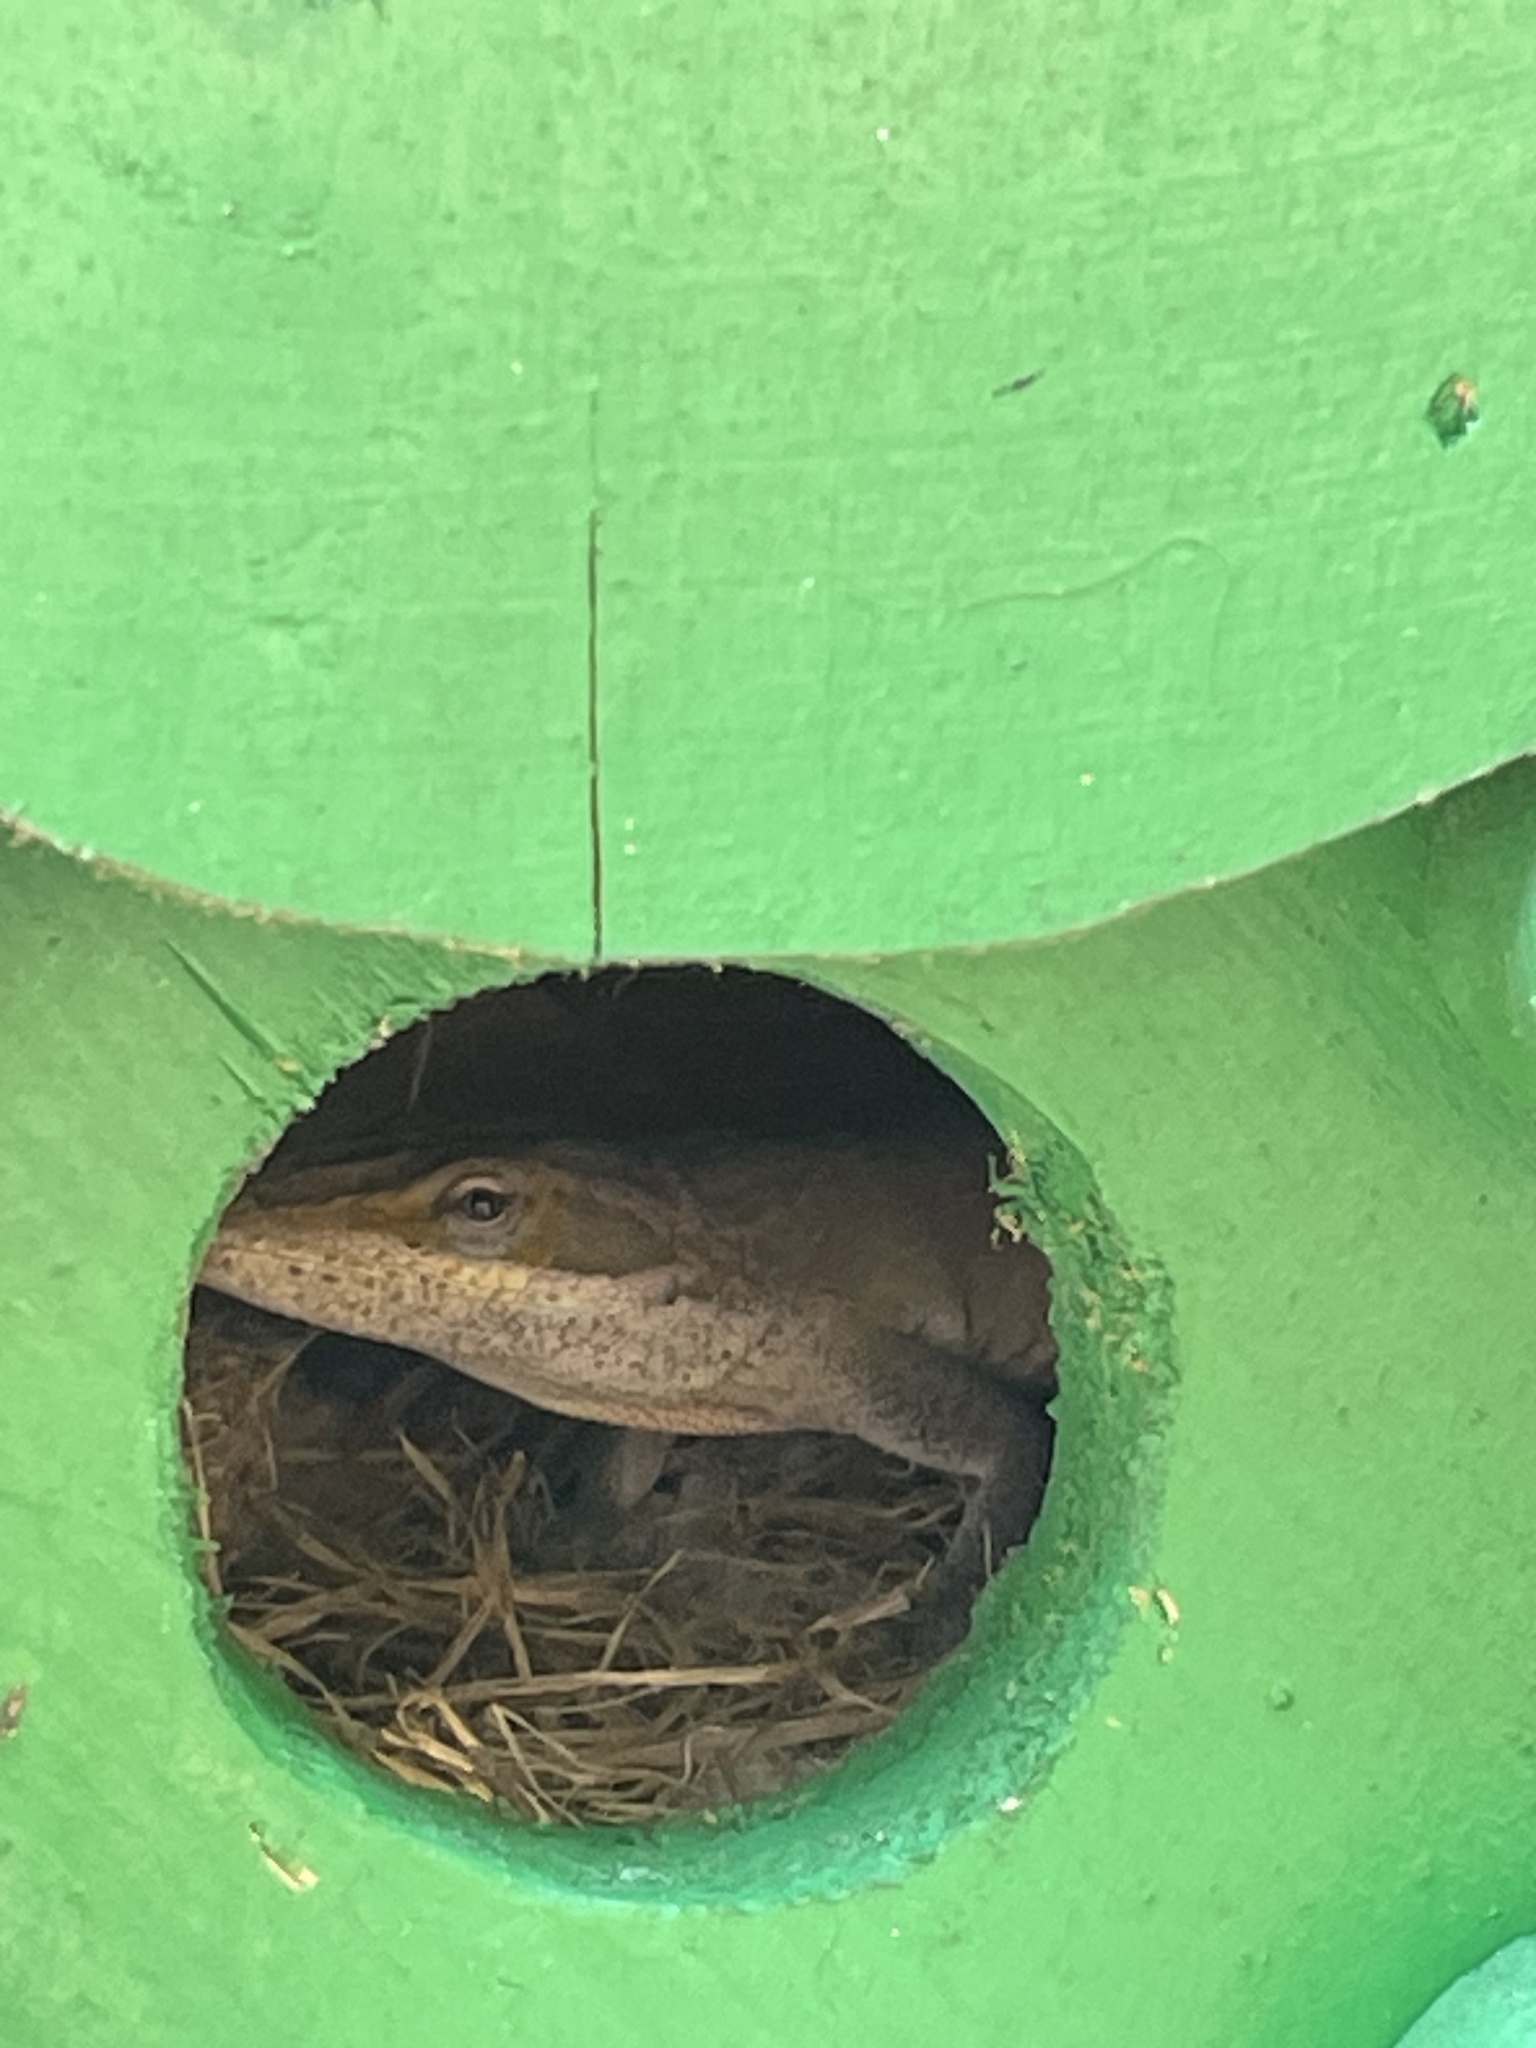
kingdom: Animalia
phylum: Chordata
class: Squamata
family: Dactyloidae
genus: Anolis
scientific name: Anolis carolinensis
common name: Green anole
